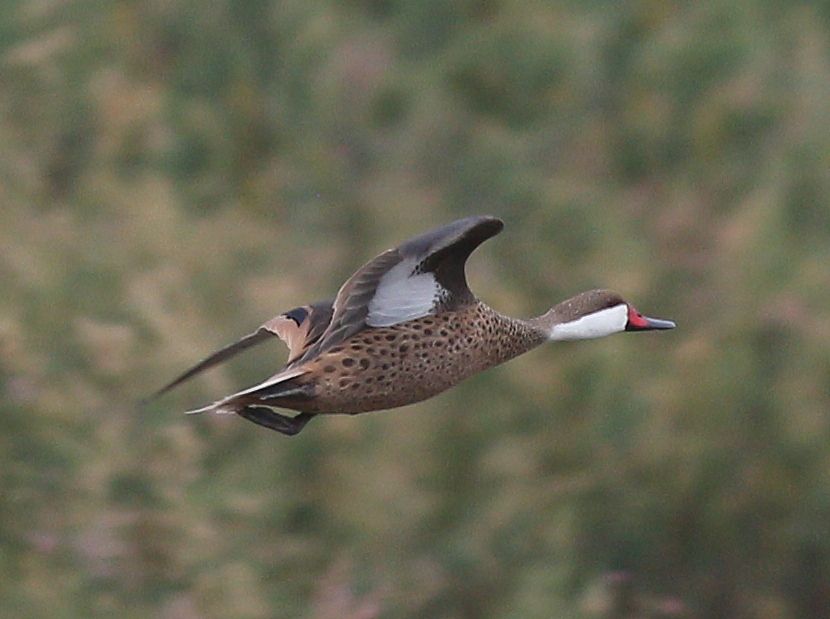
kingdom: Animalia
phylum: Chordata
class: Aves
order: Anseriformes
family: Anatidae
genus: Anas
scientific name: Anas bahamensis
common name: White-cheeked pintail
